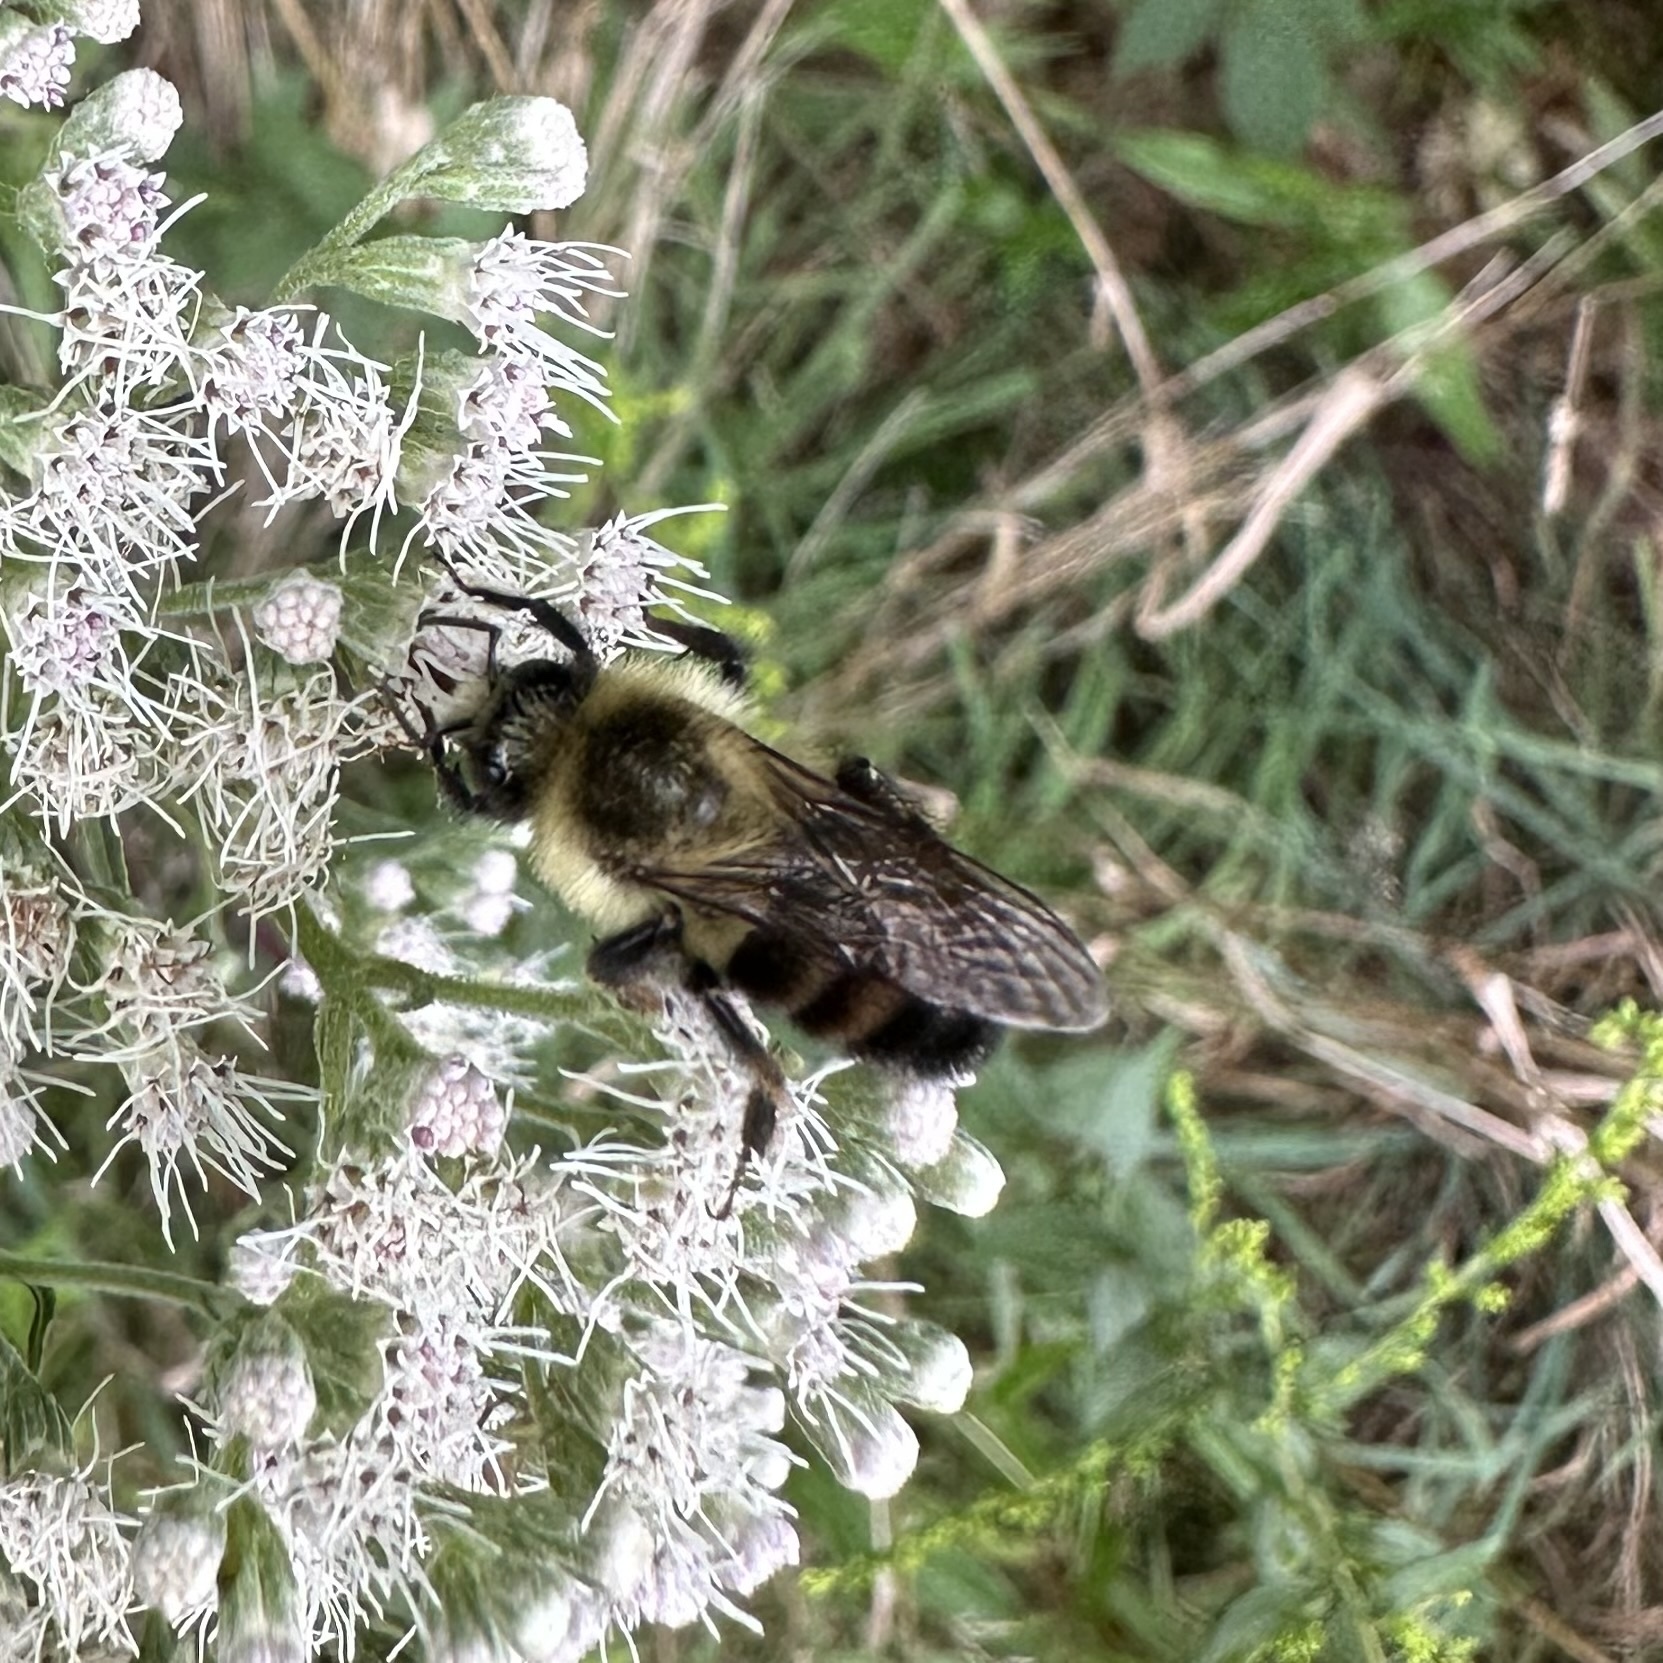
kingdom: Animalia
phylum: Arthropoda
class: Insecta
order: Hymenoptera
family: Apidae
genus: Bombus
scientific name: Bombus impatiens
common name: Common eastern bumble bee
